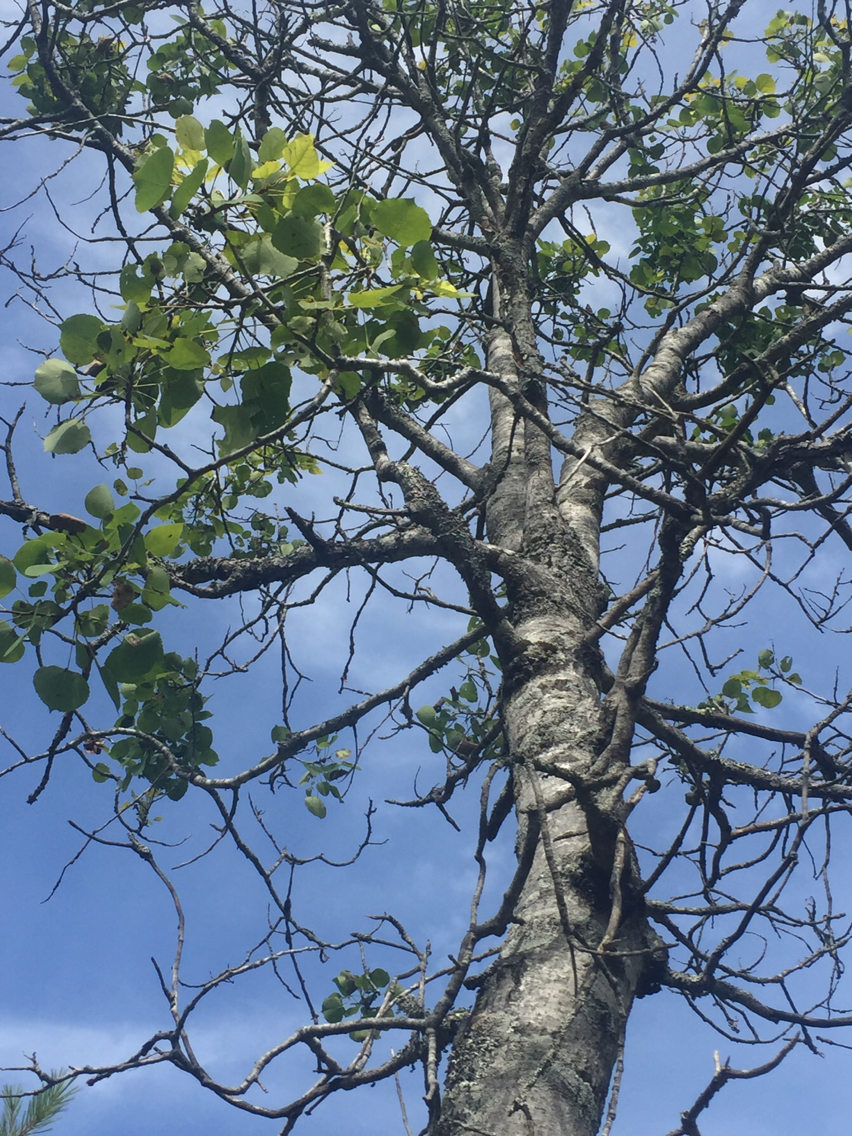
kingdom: Plantae
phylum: Tracheophyta
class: Magnoliopsida
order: Malpighiales
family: Salicaceae
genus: Populus
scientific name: Populus tremuloides
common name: Quaking aspen
